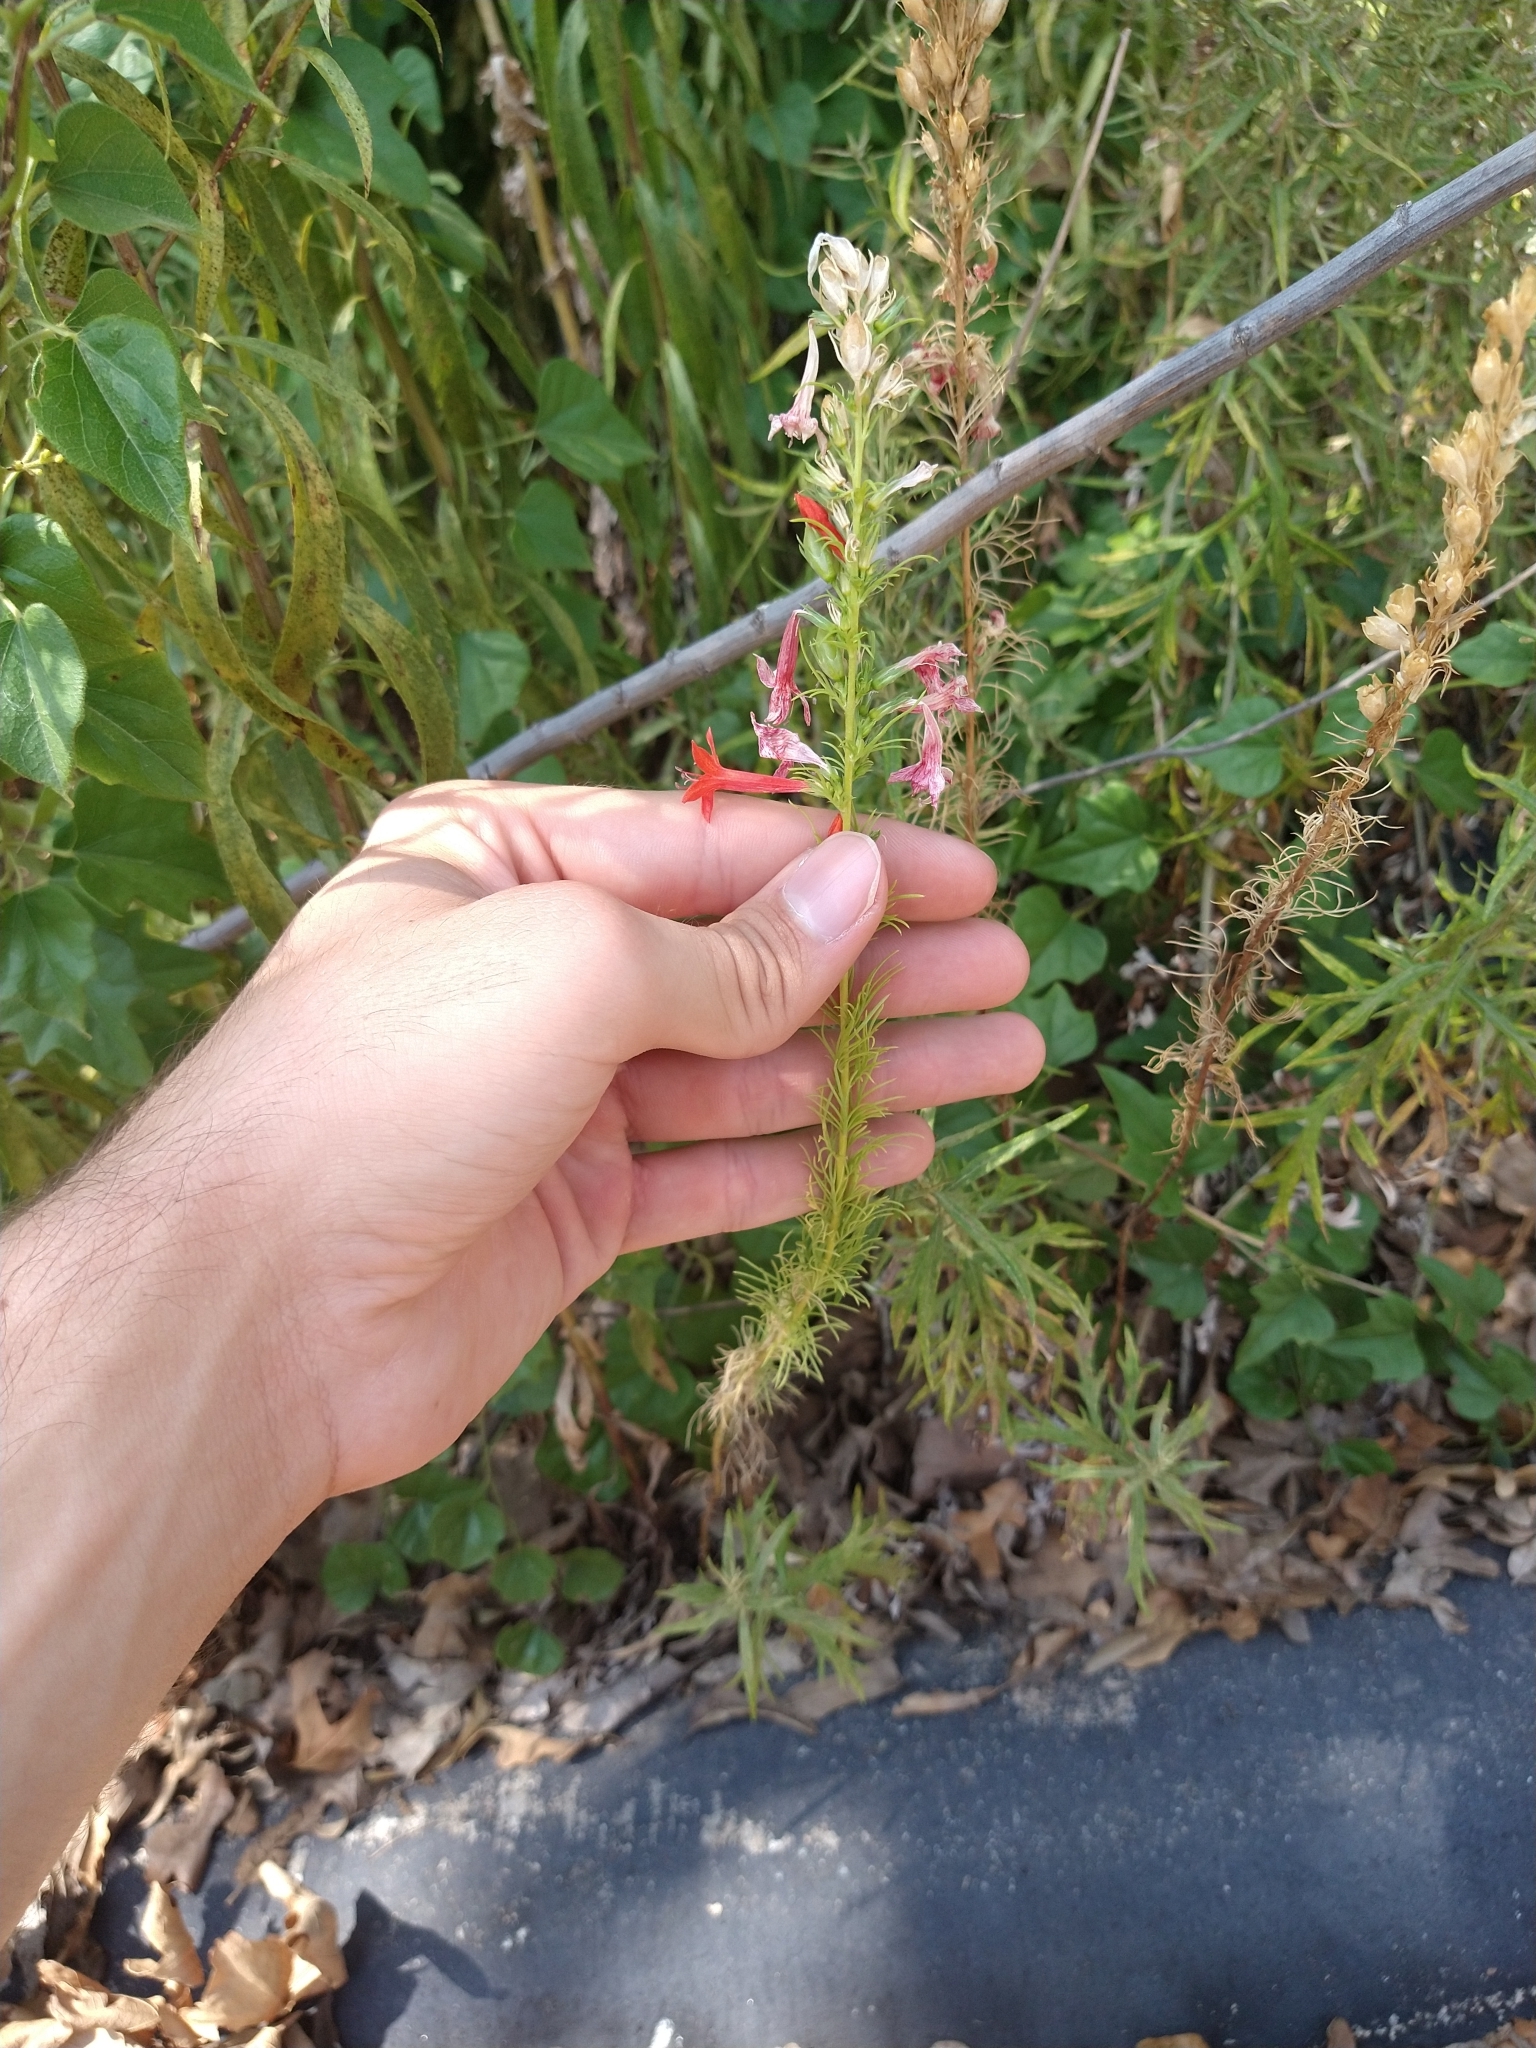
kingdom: Plantae
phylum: Tracheophyta
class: Magnoliopsida
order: Ericales
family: Polemoniaceae
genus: Ipomopsis
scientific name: Ipomopsis rubra
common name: Skyrocket
